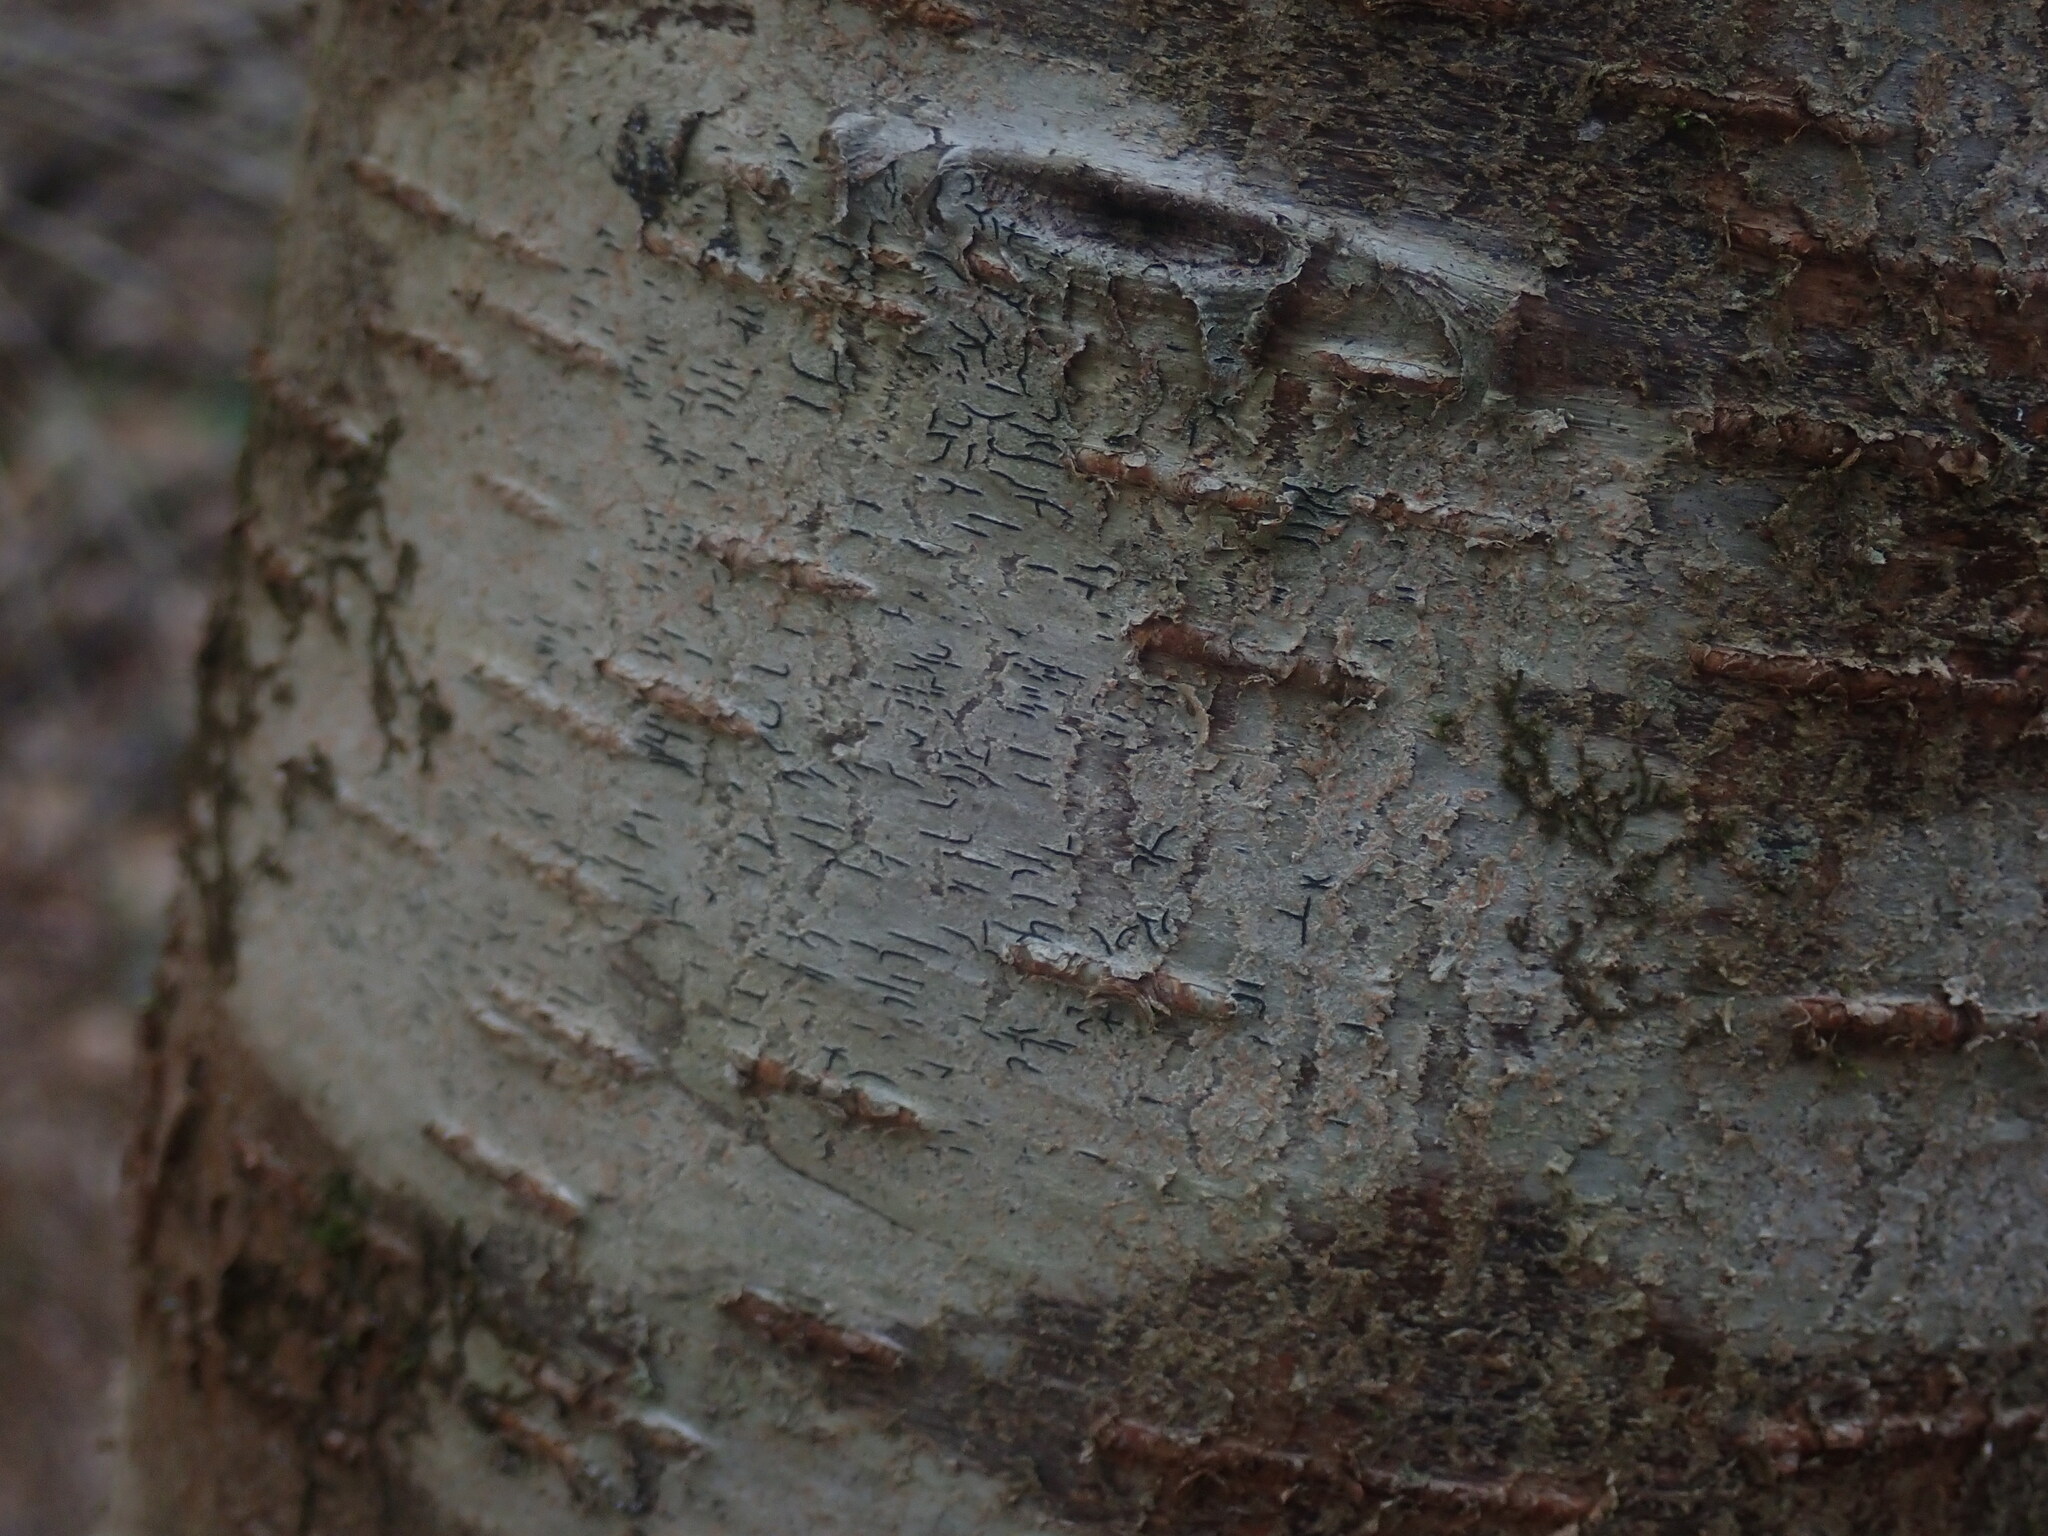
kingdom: Fungi
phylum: Ascomycota
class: Lecanoromycetes
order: Ostropales
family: Graphidaceae
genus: Graphis
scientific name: Graphis scripta
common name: Script lichen
